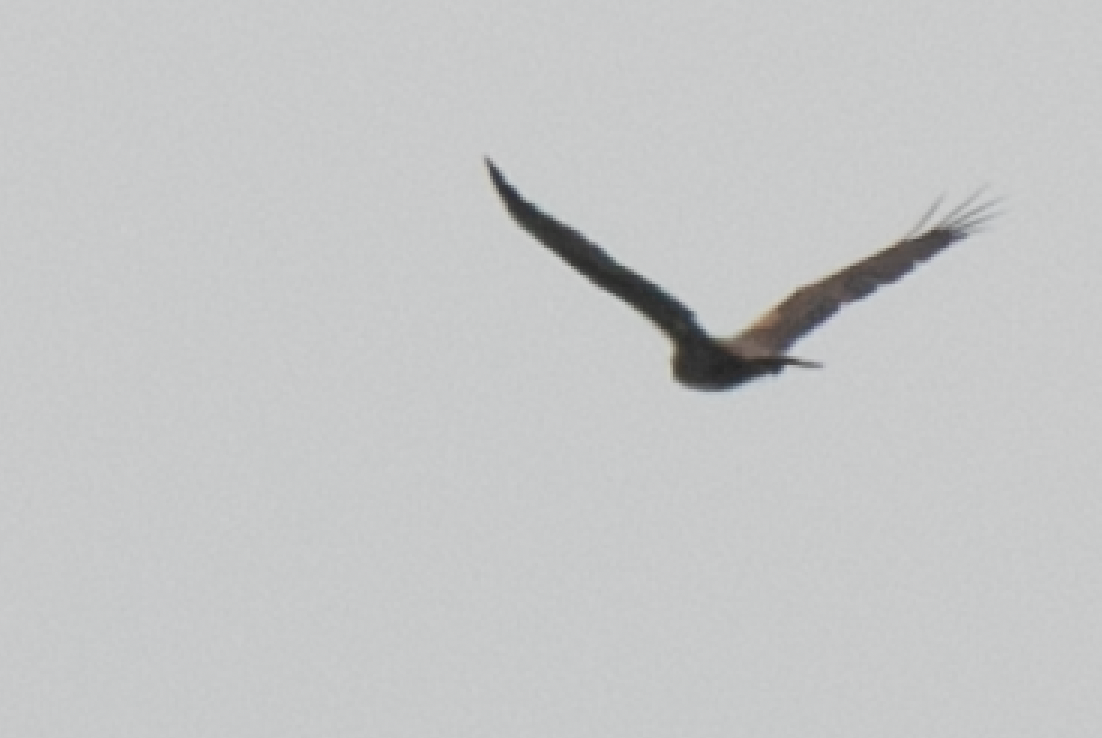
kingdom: Animalia
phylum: Chordata
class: Aves
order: Accipitriformes
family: Accipitridae
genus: Circus
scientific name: Circus aeruginosus
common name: Western marsh harrier
